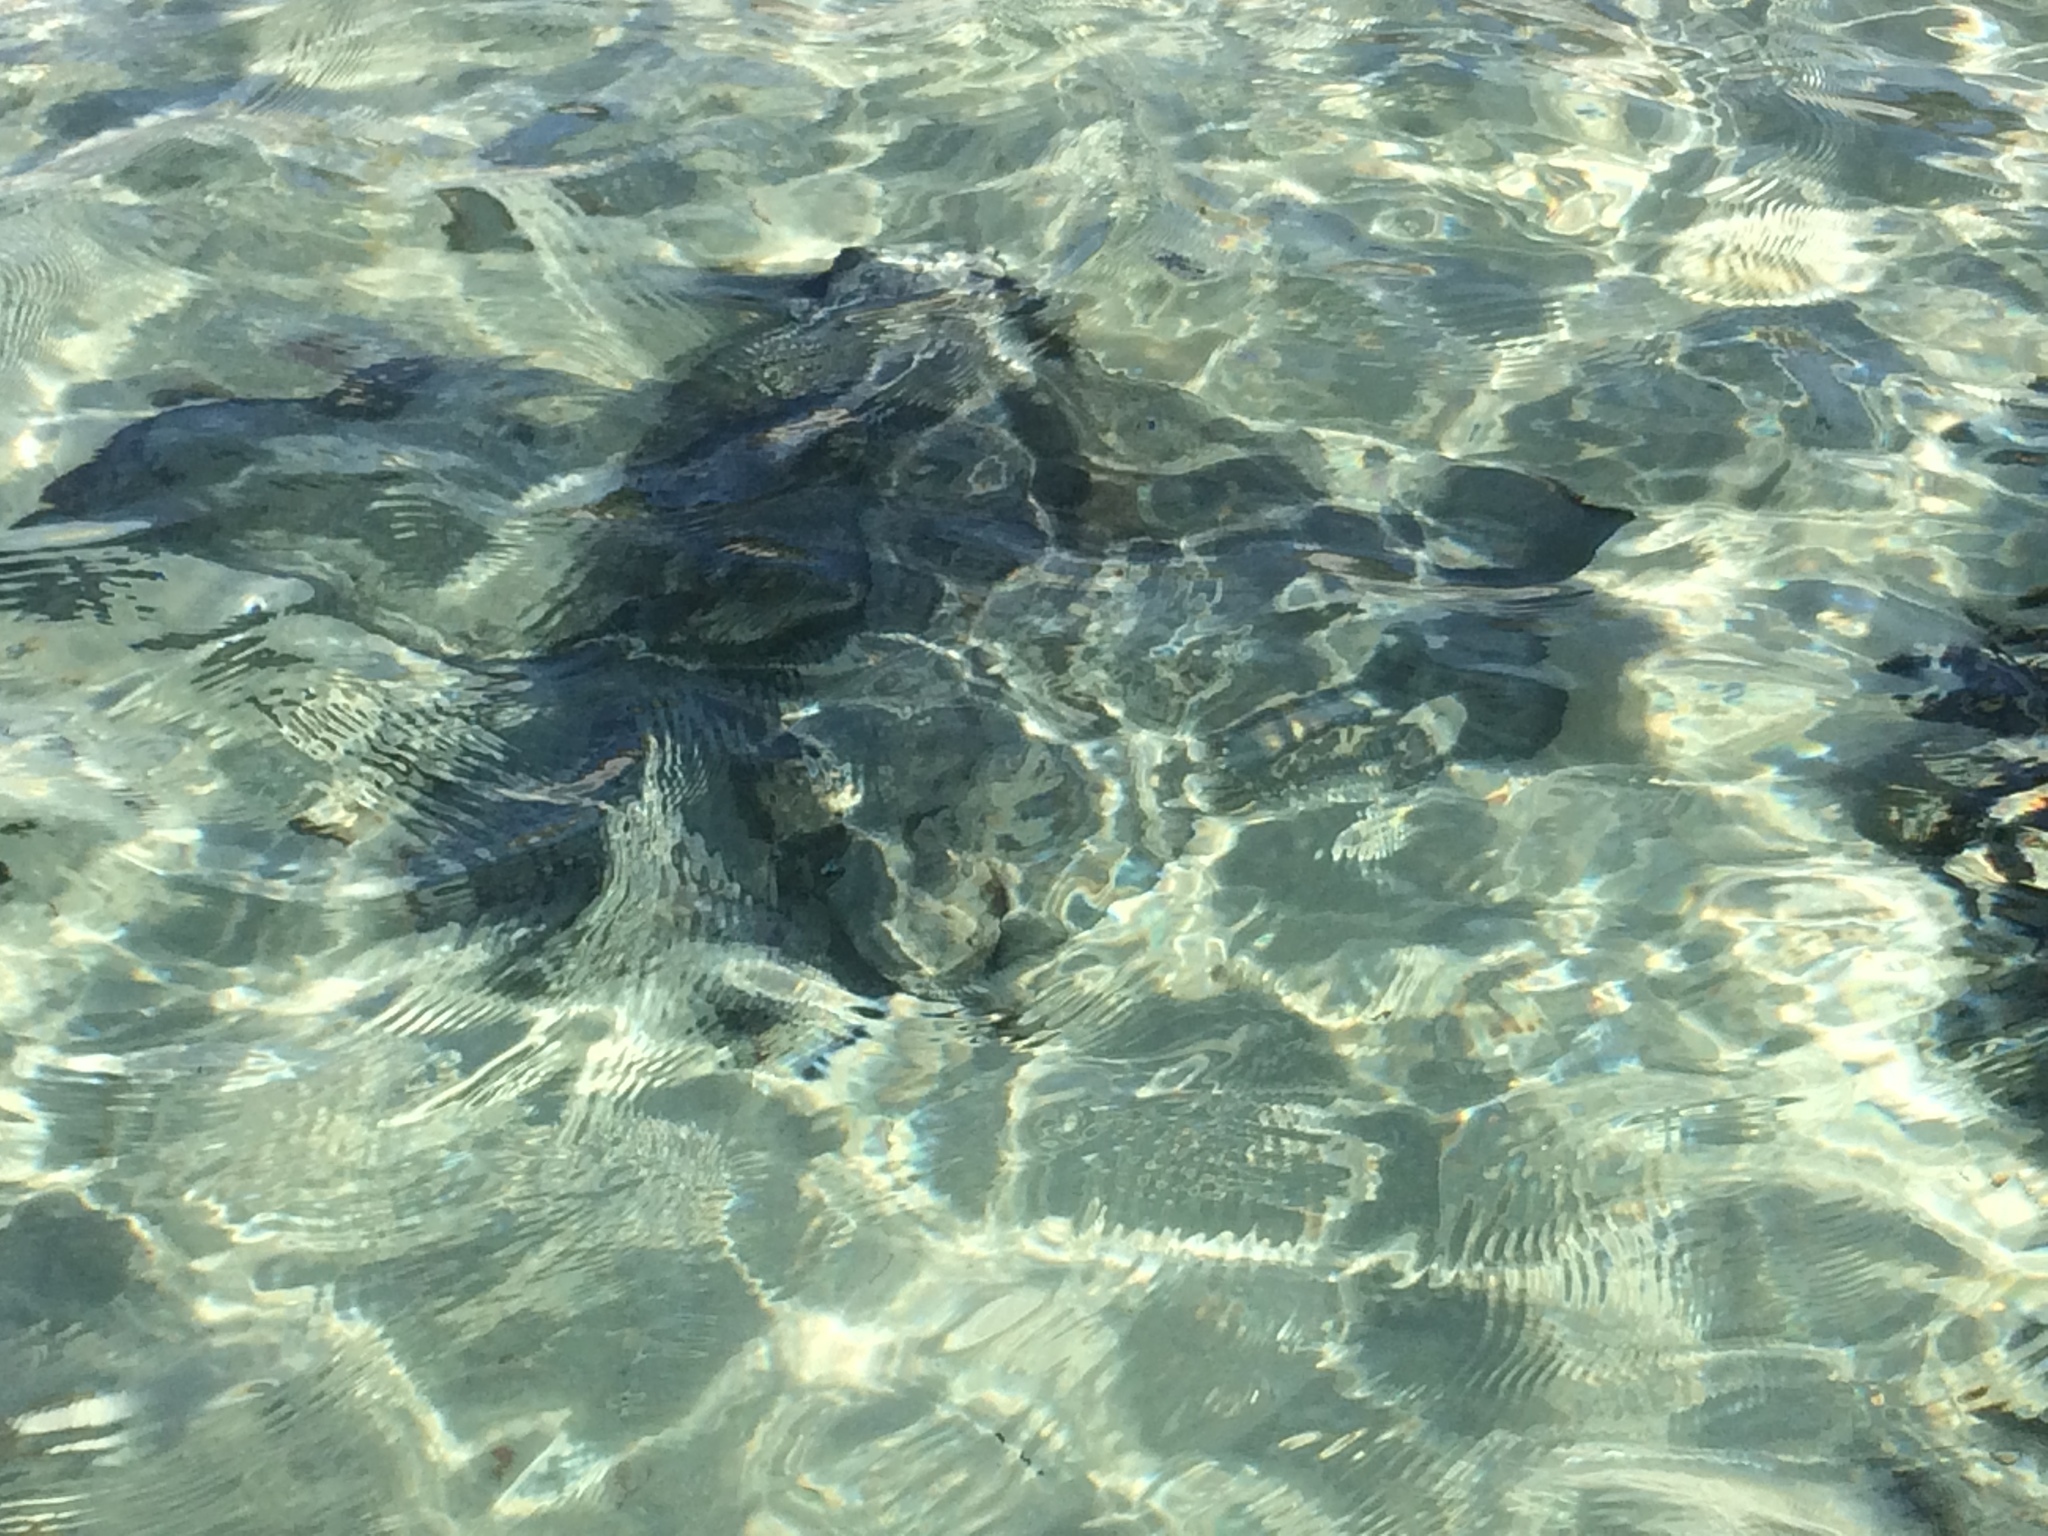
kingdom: Animalia
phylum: Chordata
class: Elasmobranchii
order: Myliobatiformes
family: Myliobatidae
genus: Myliobatis
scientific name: Myliobatis tenuicaudatus
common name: Eagle ray
